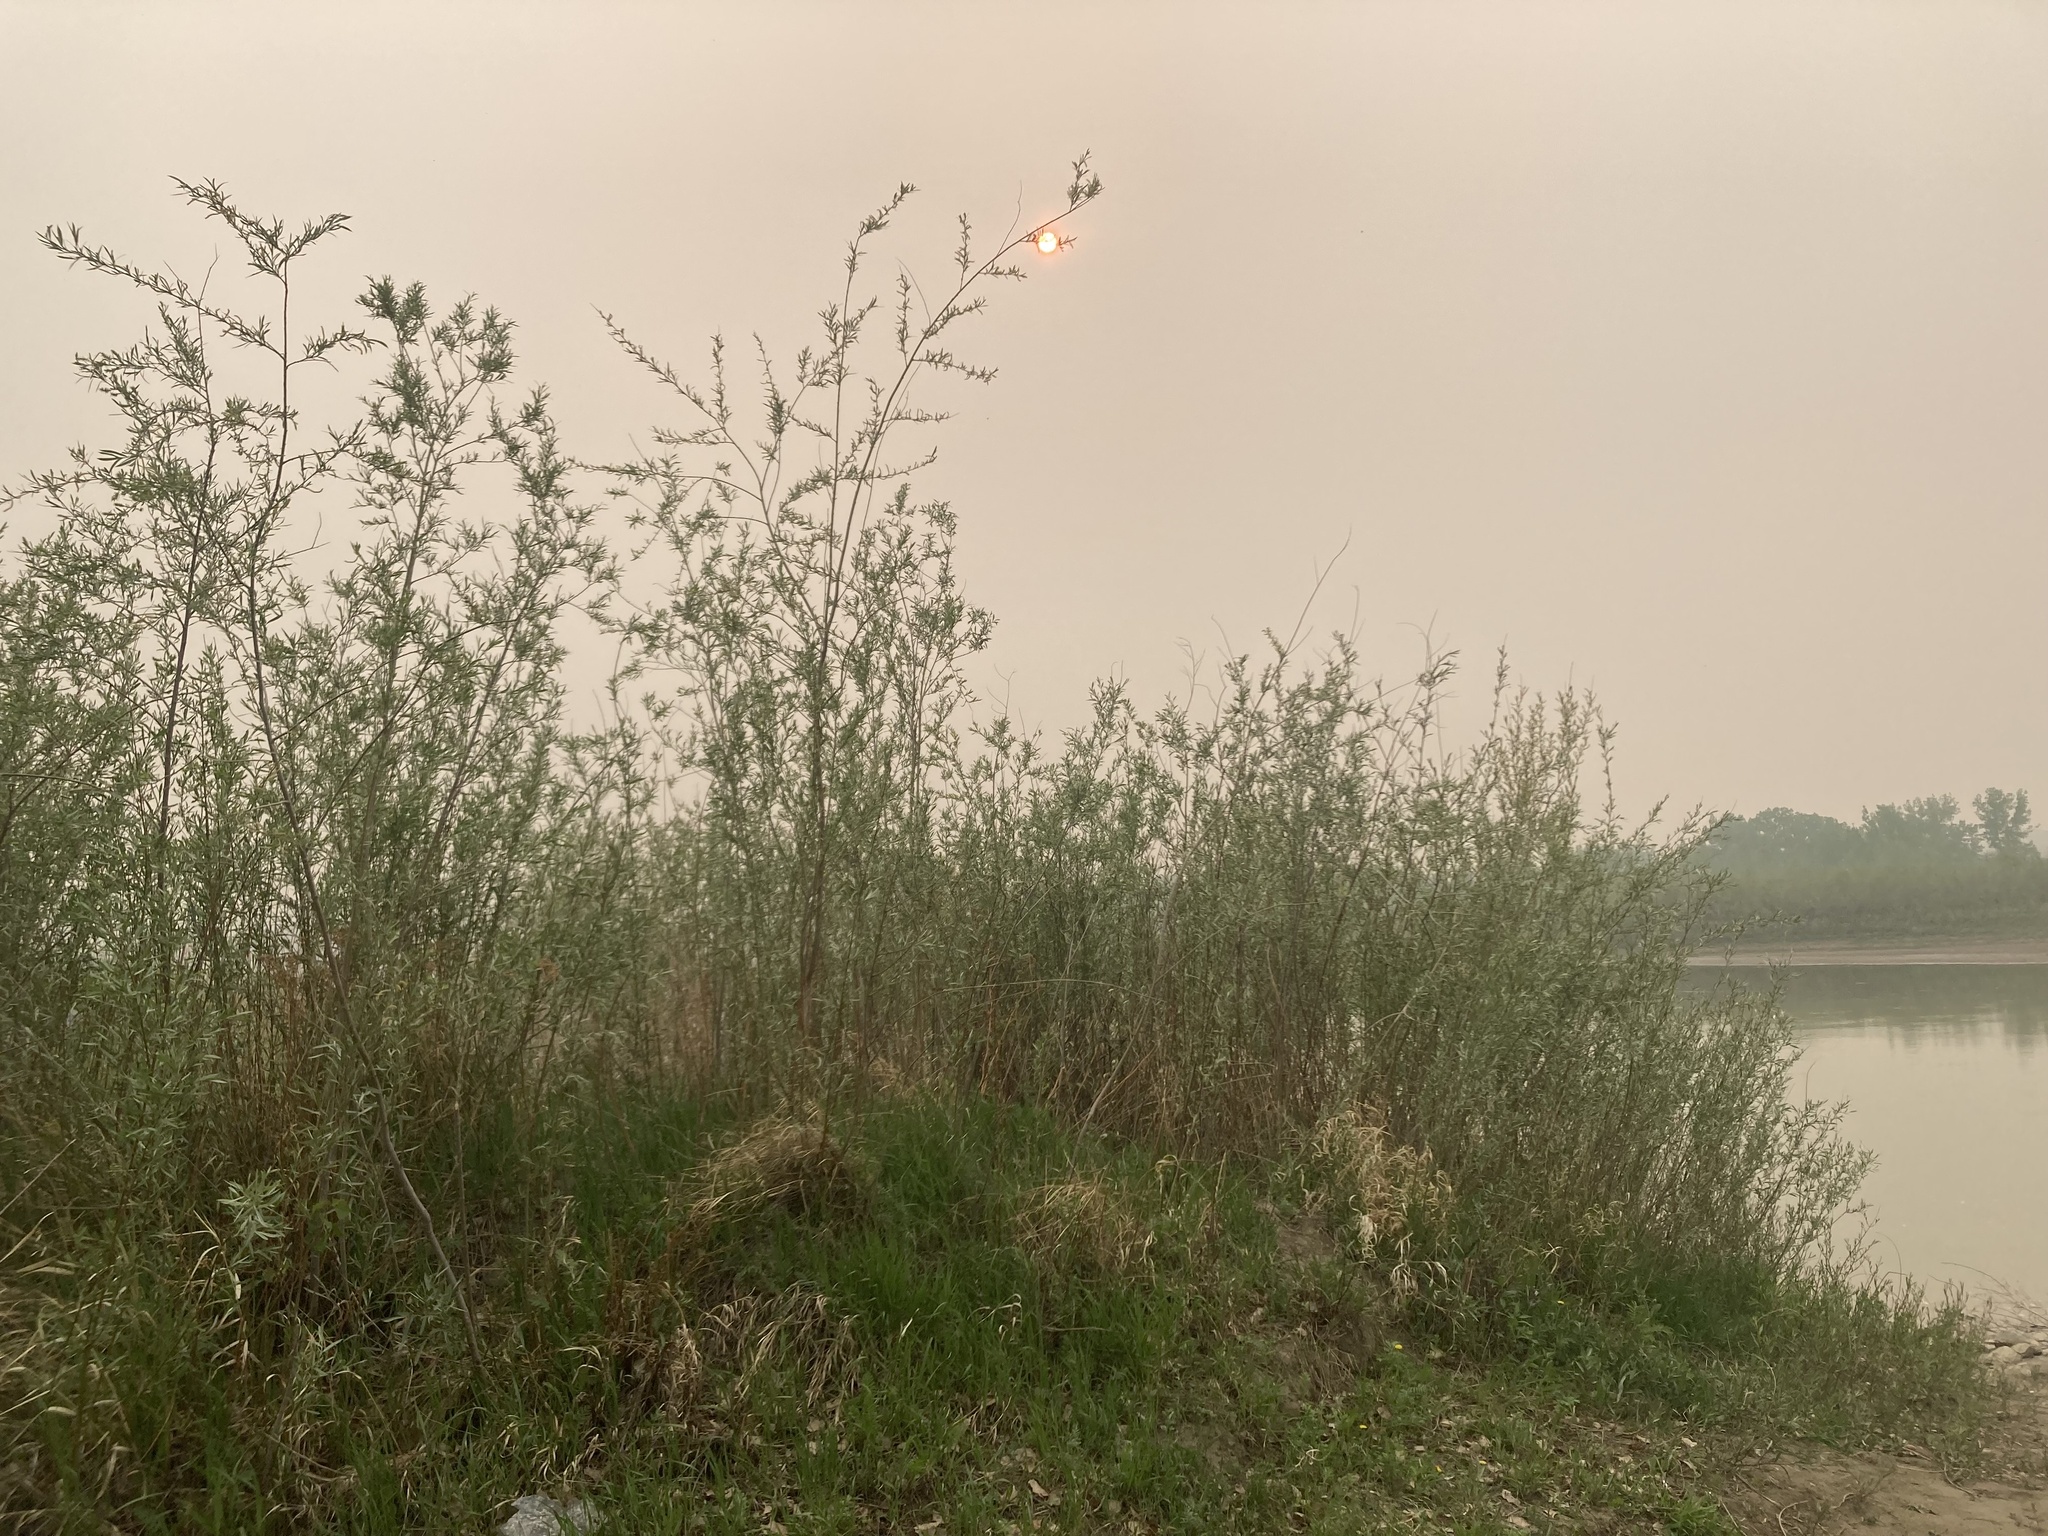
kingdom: Plantae
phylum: Tracheophyta
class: Magnoliopsida
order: Malpighiales
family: Salicaceae
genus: Salix
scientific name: Salix interior
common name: Sandbar willow
